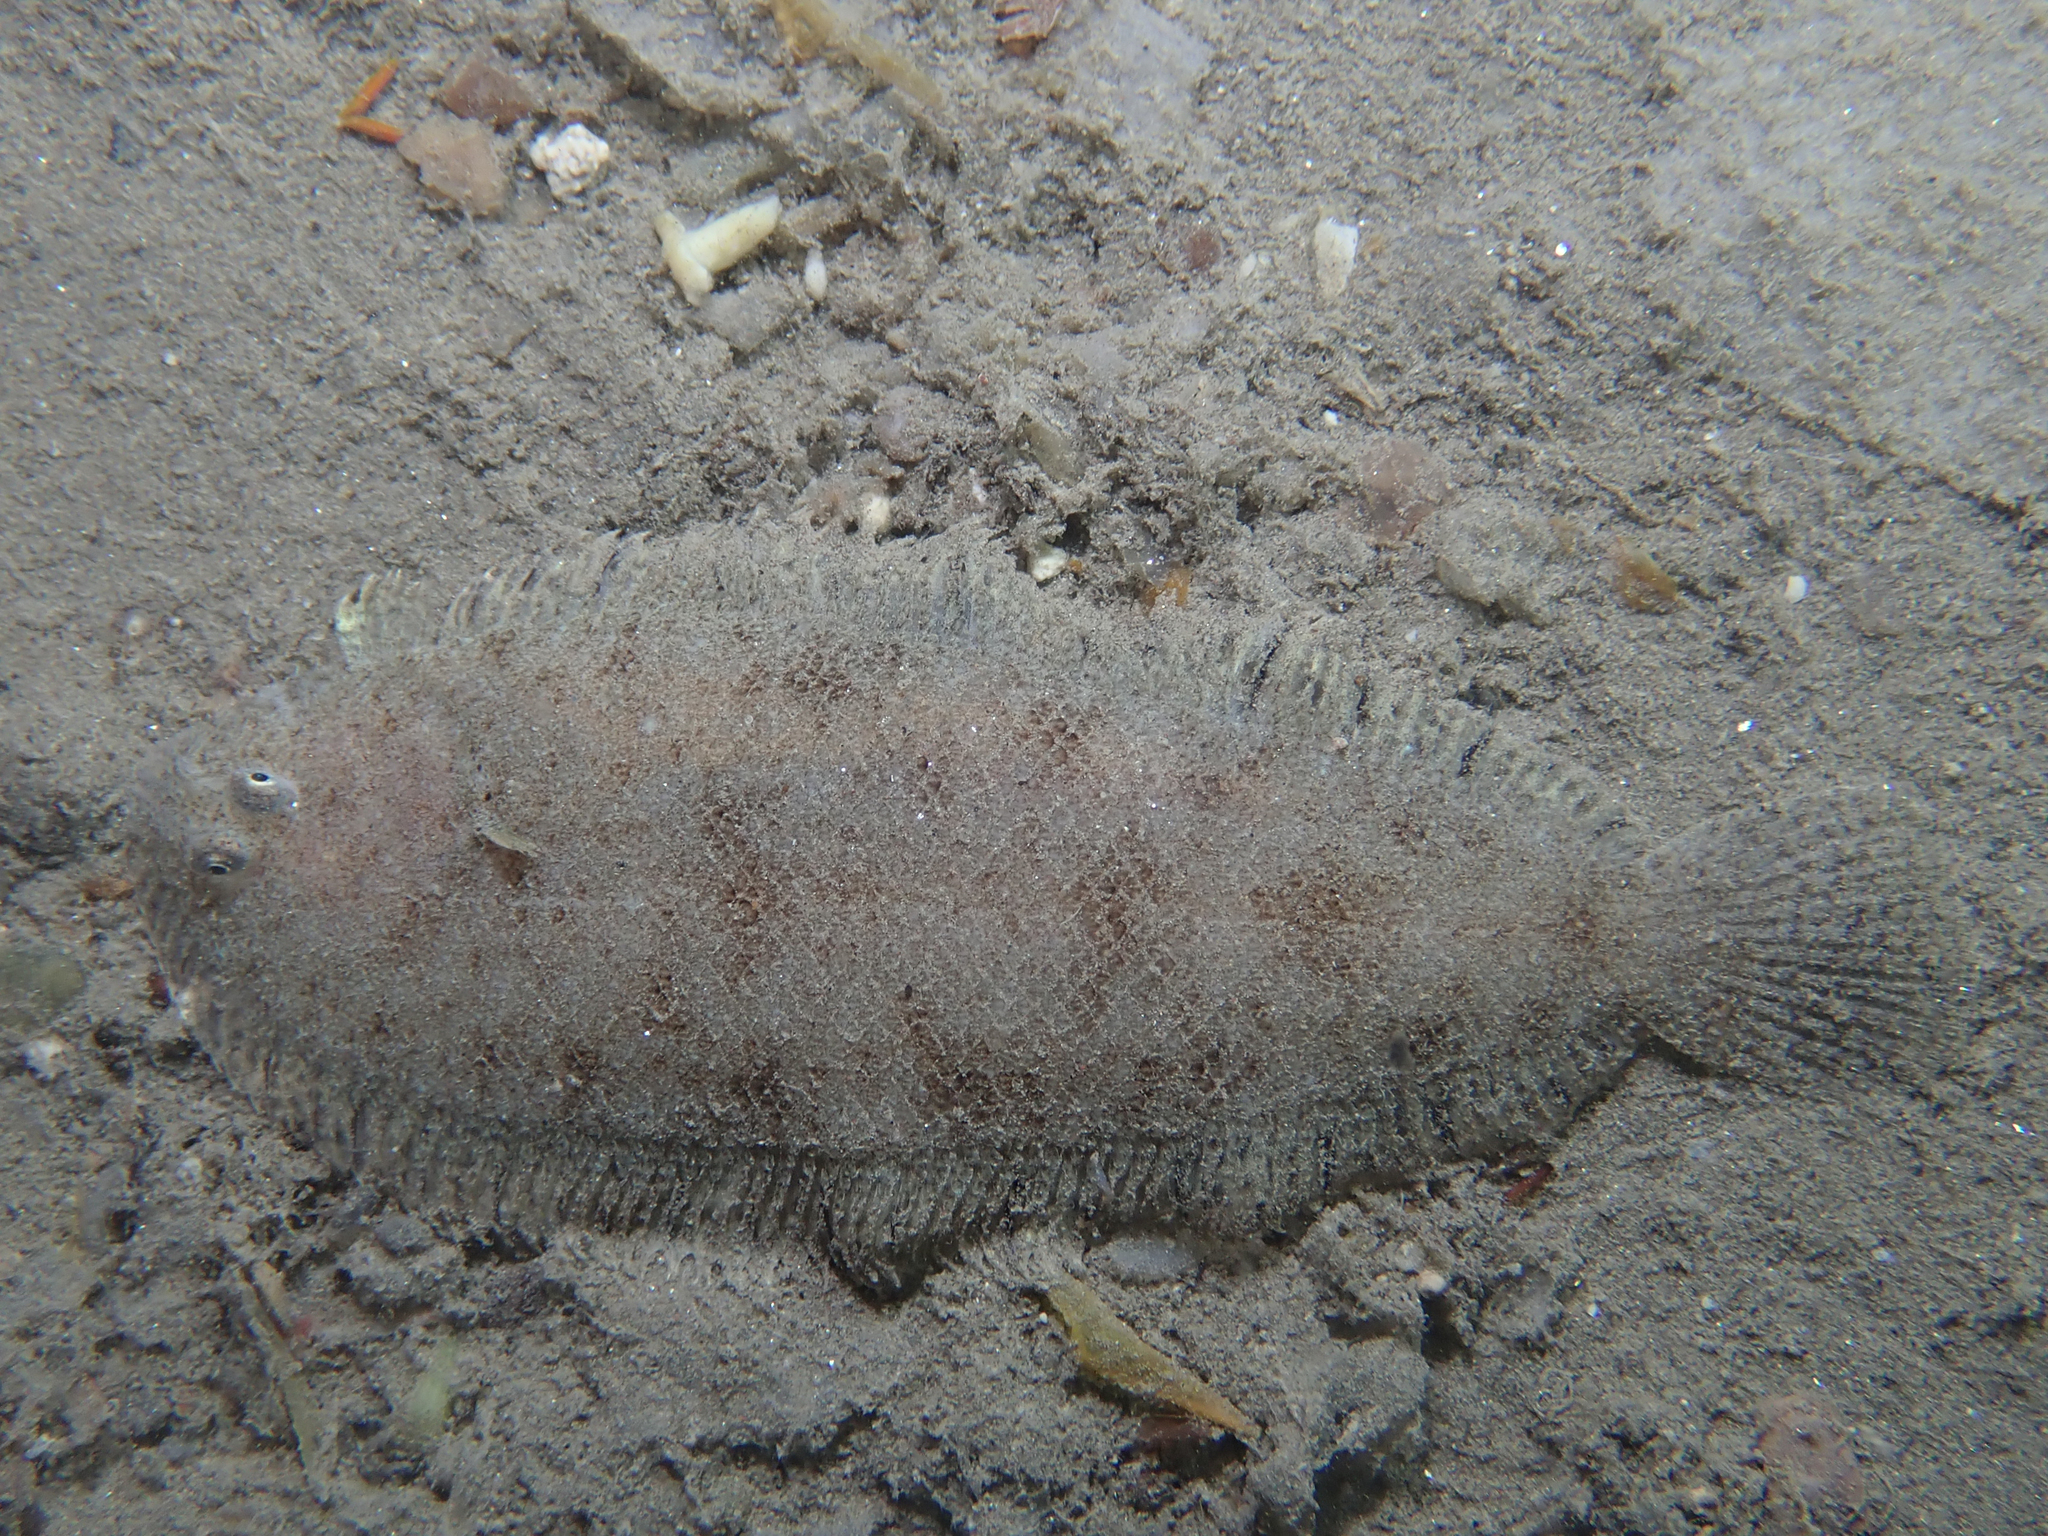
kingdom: Animalia
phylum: Chordata
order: Pleuronectiformes
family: Soleidae
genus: Buglossidium
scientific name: Buglossidium luteum
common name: Solenette
